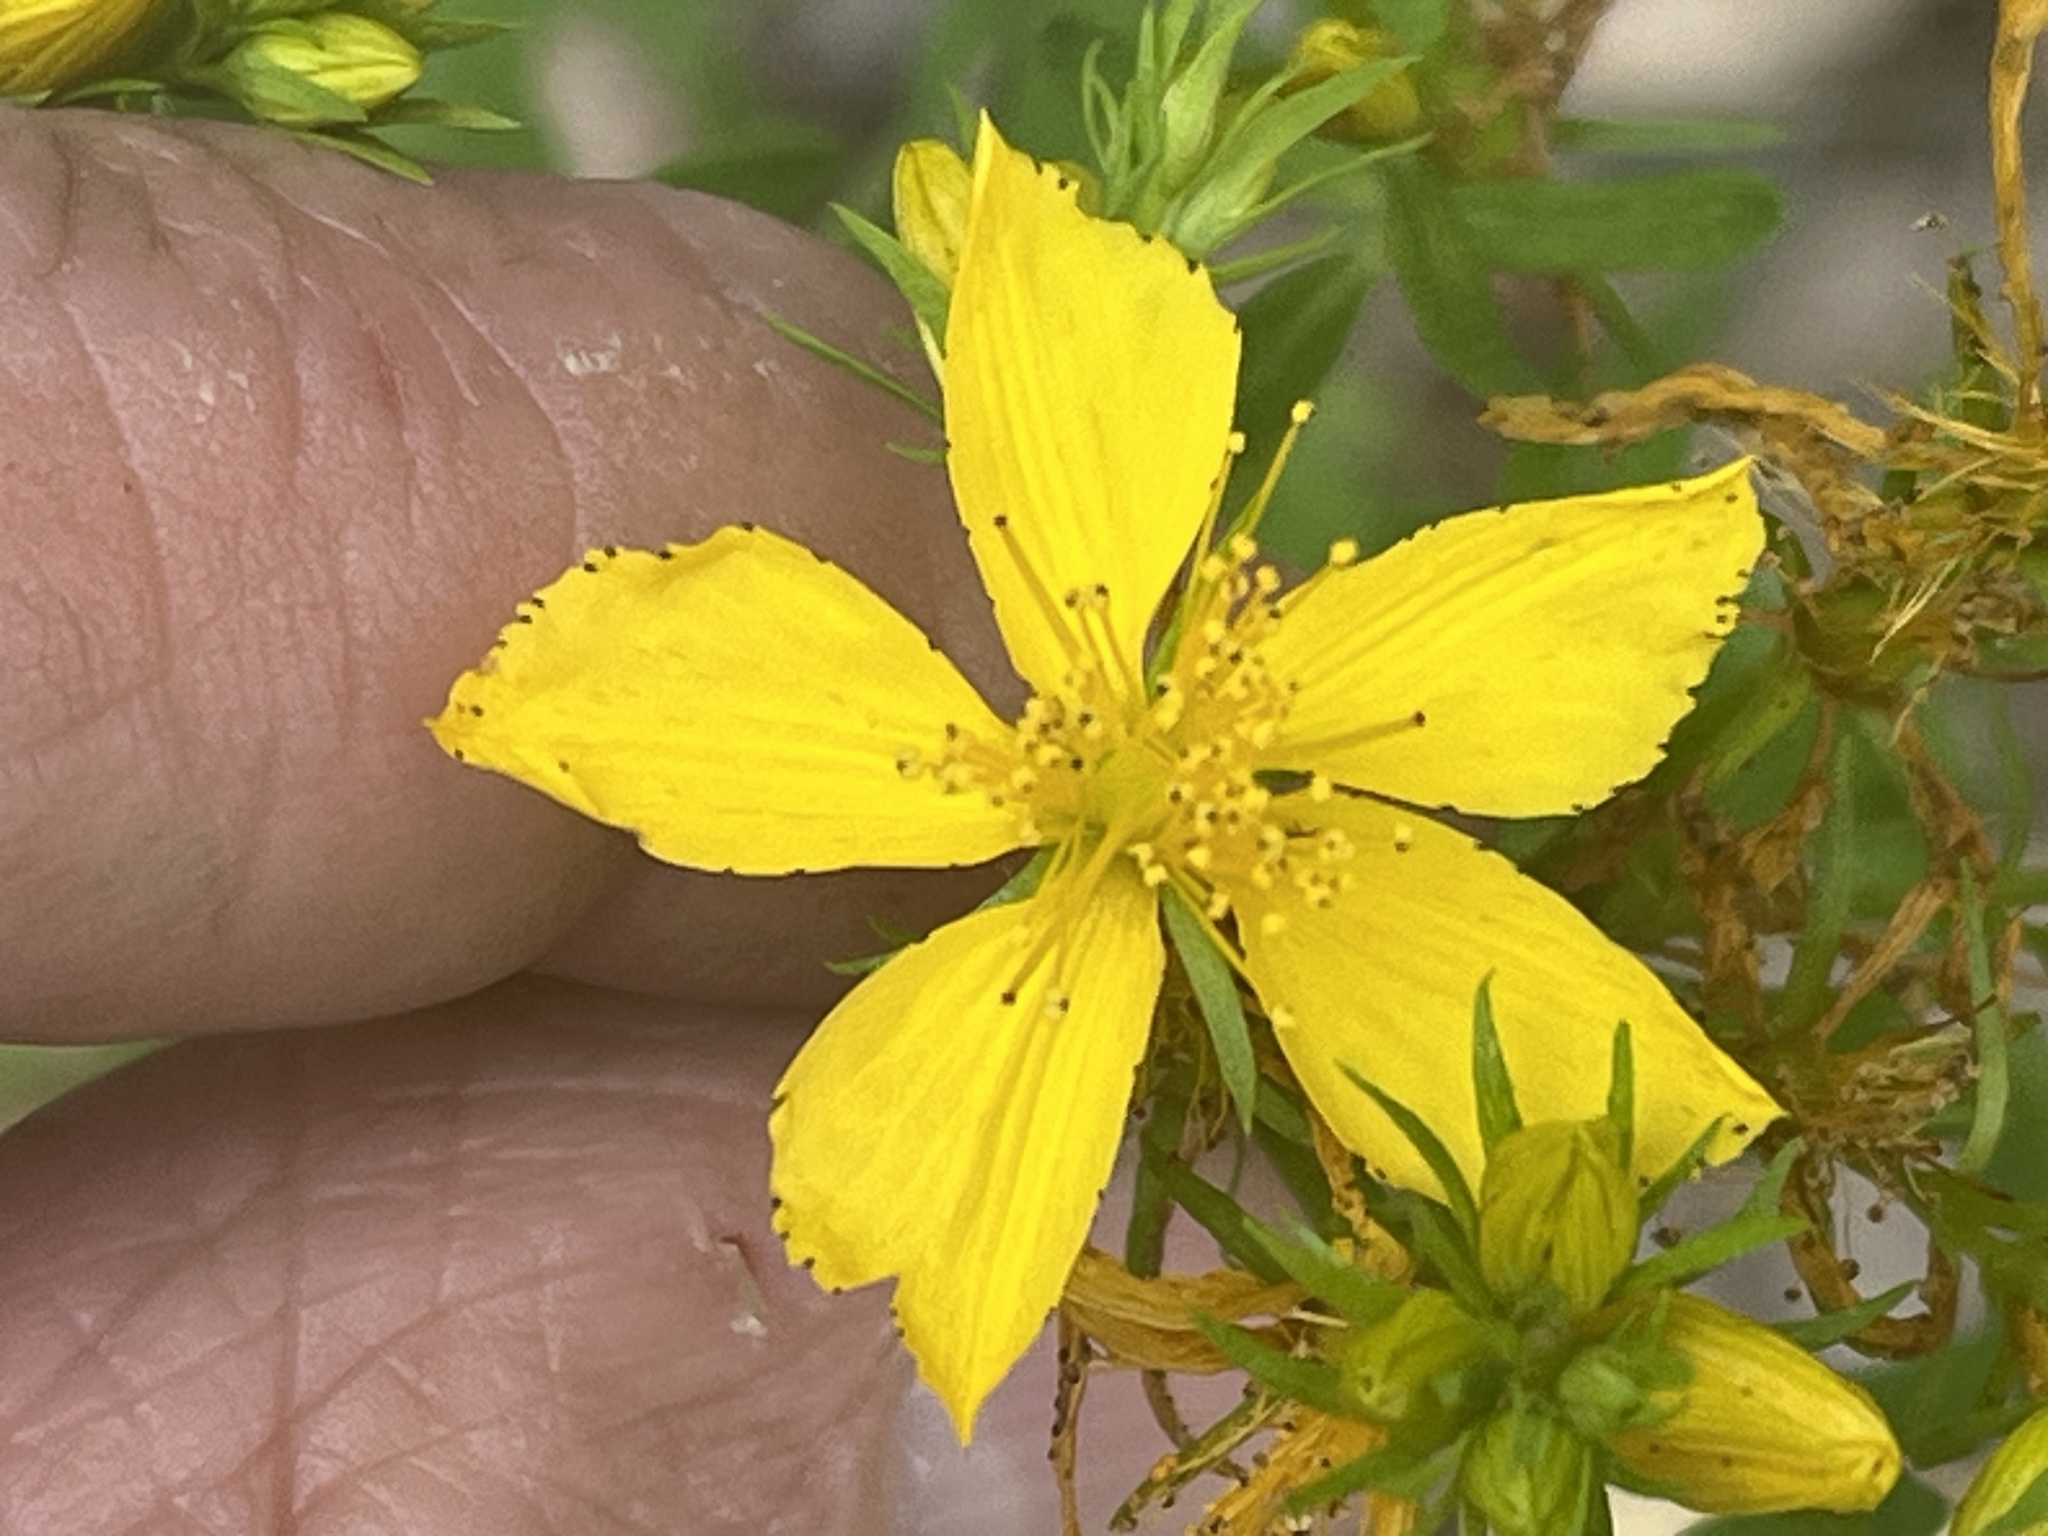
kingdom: Plantae
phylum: Tracheophyta
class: Magnoliopsida
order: Malpighiales
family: Hypericaceae
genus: Hypericum
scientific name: Hypericum perforatum
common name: Common st. johnswort
